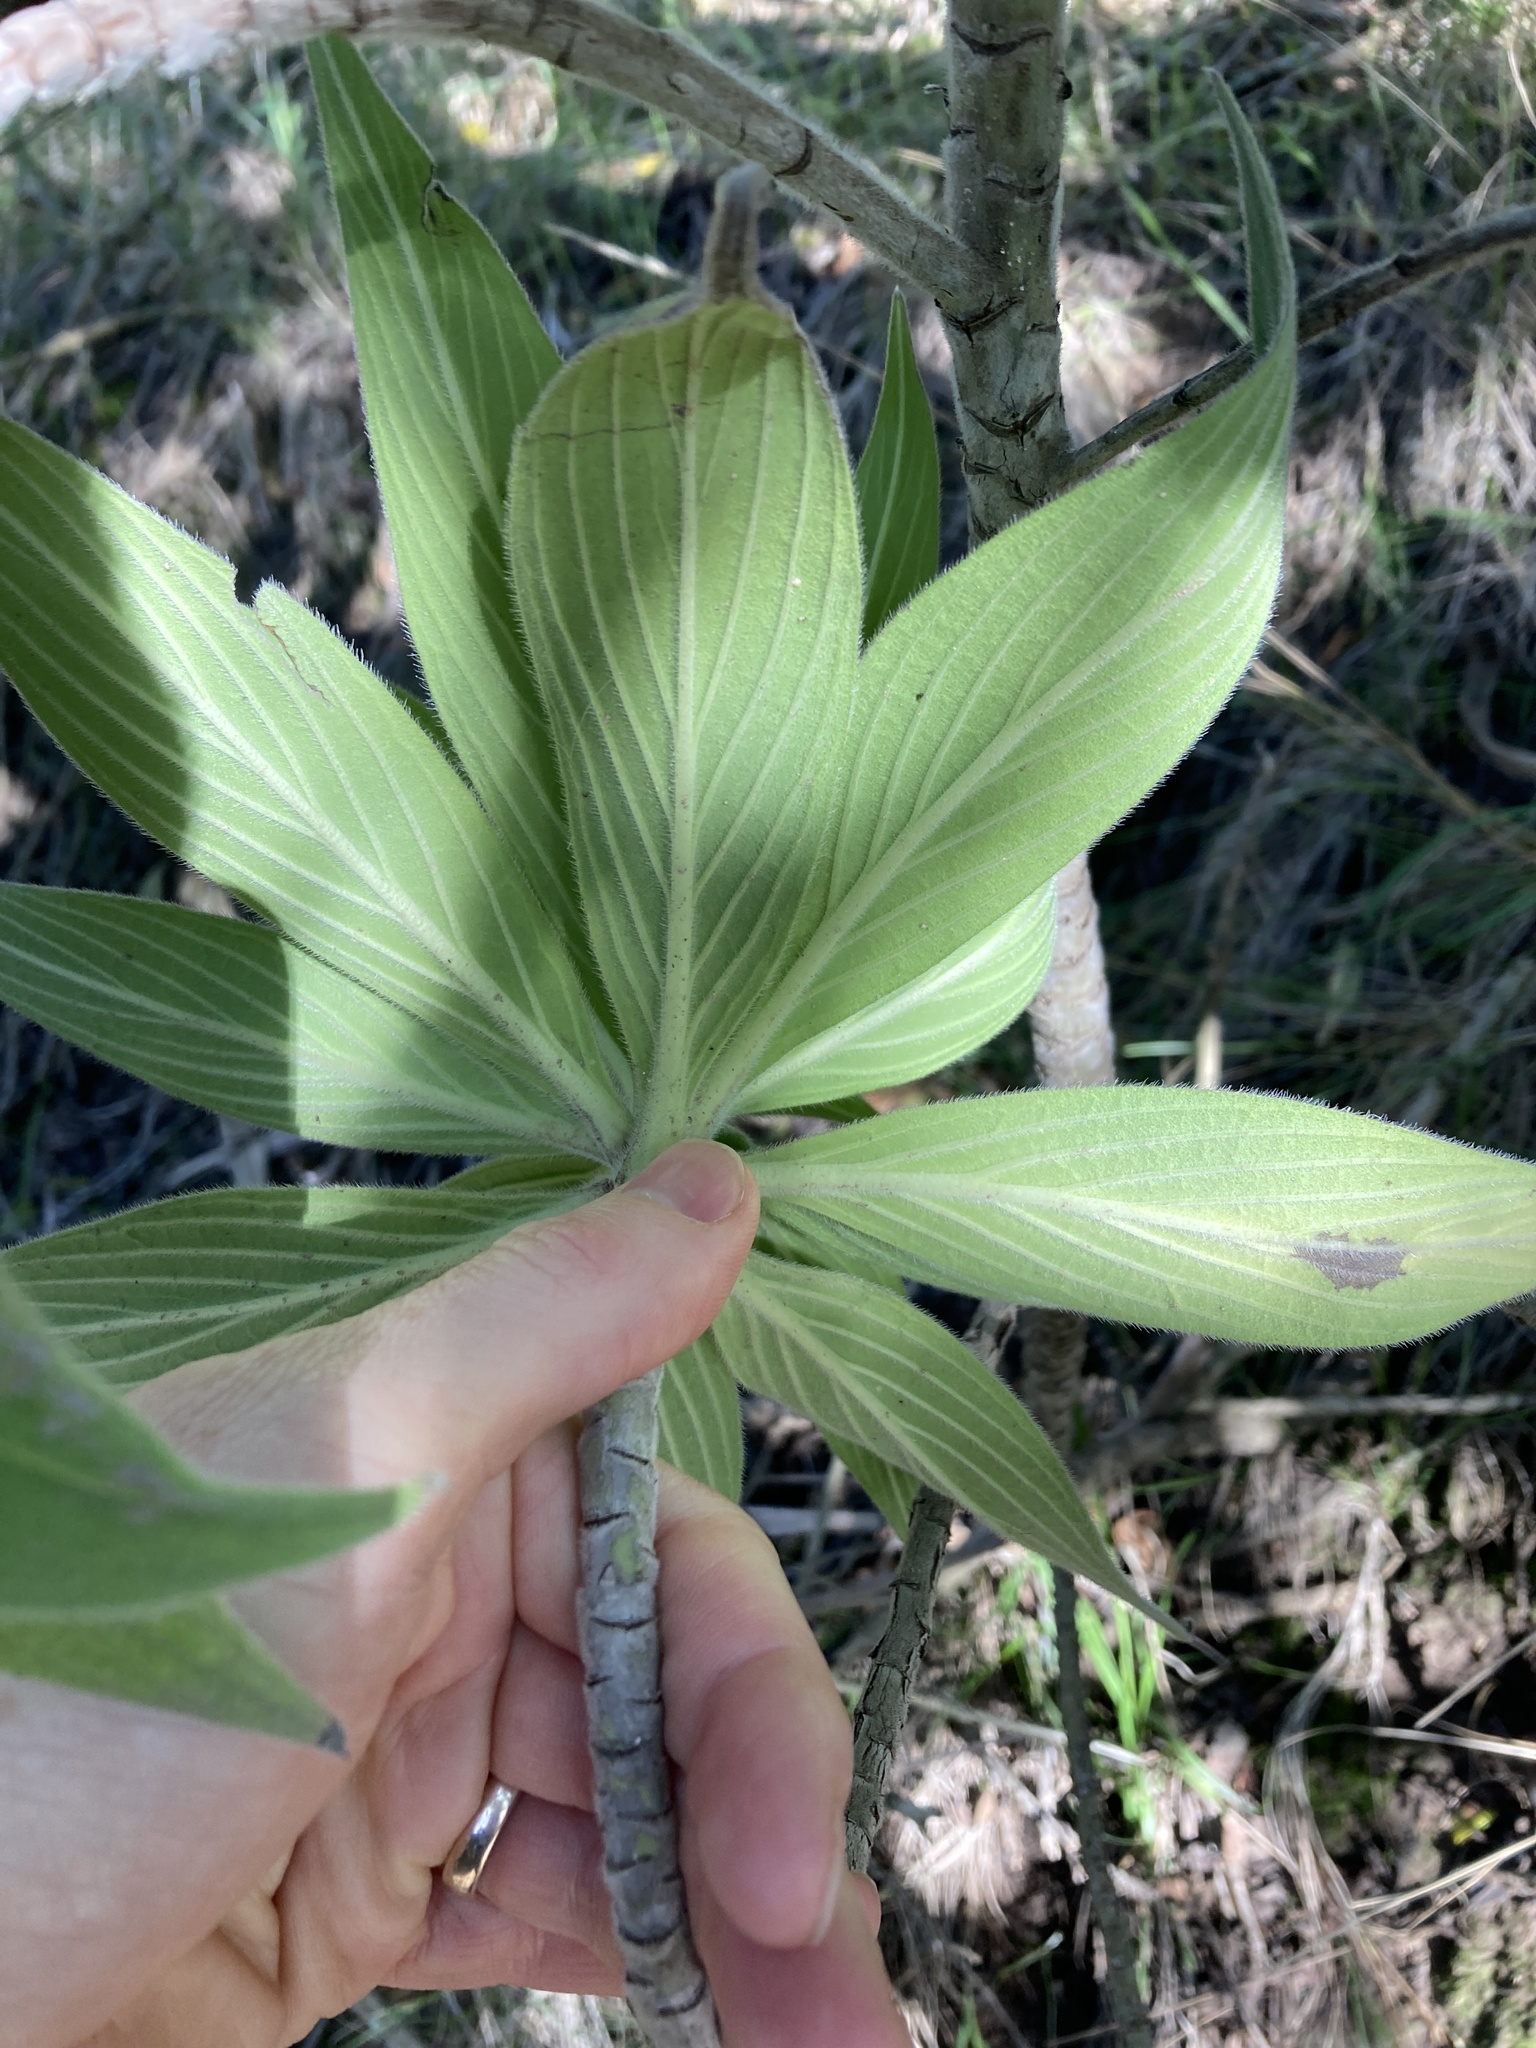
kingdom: Plantae
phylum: Tracheophyta
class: Magnoliopsida
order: Boraginales
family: Boraginaceae
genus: Echium
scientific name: Echium candicans
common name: Pride of madeira
